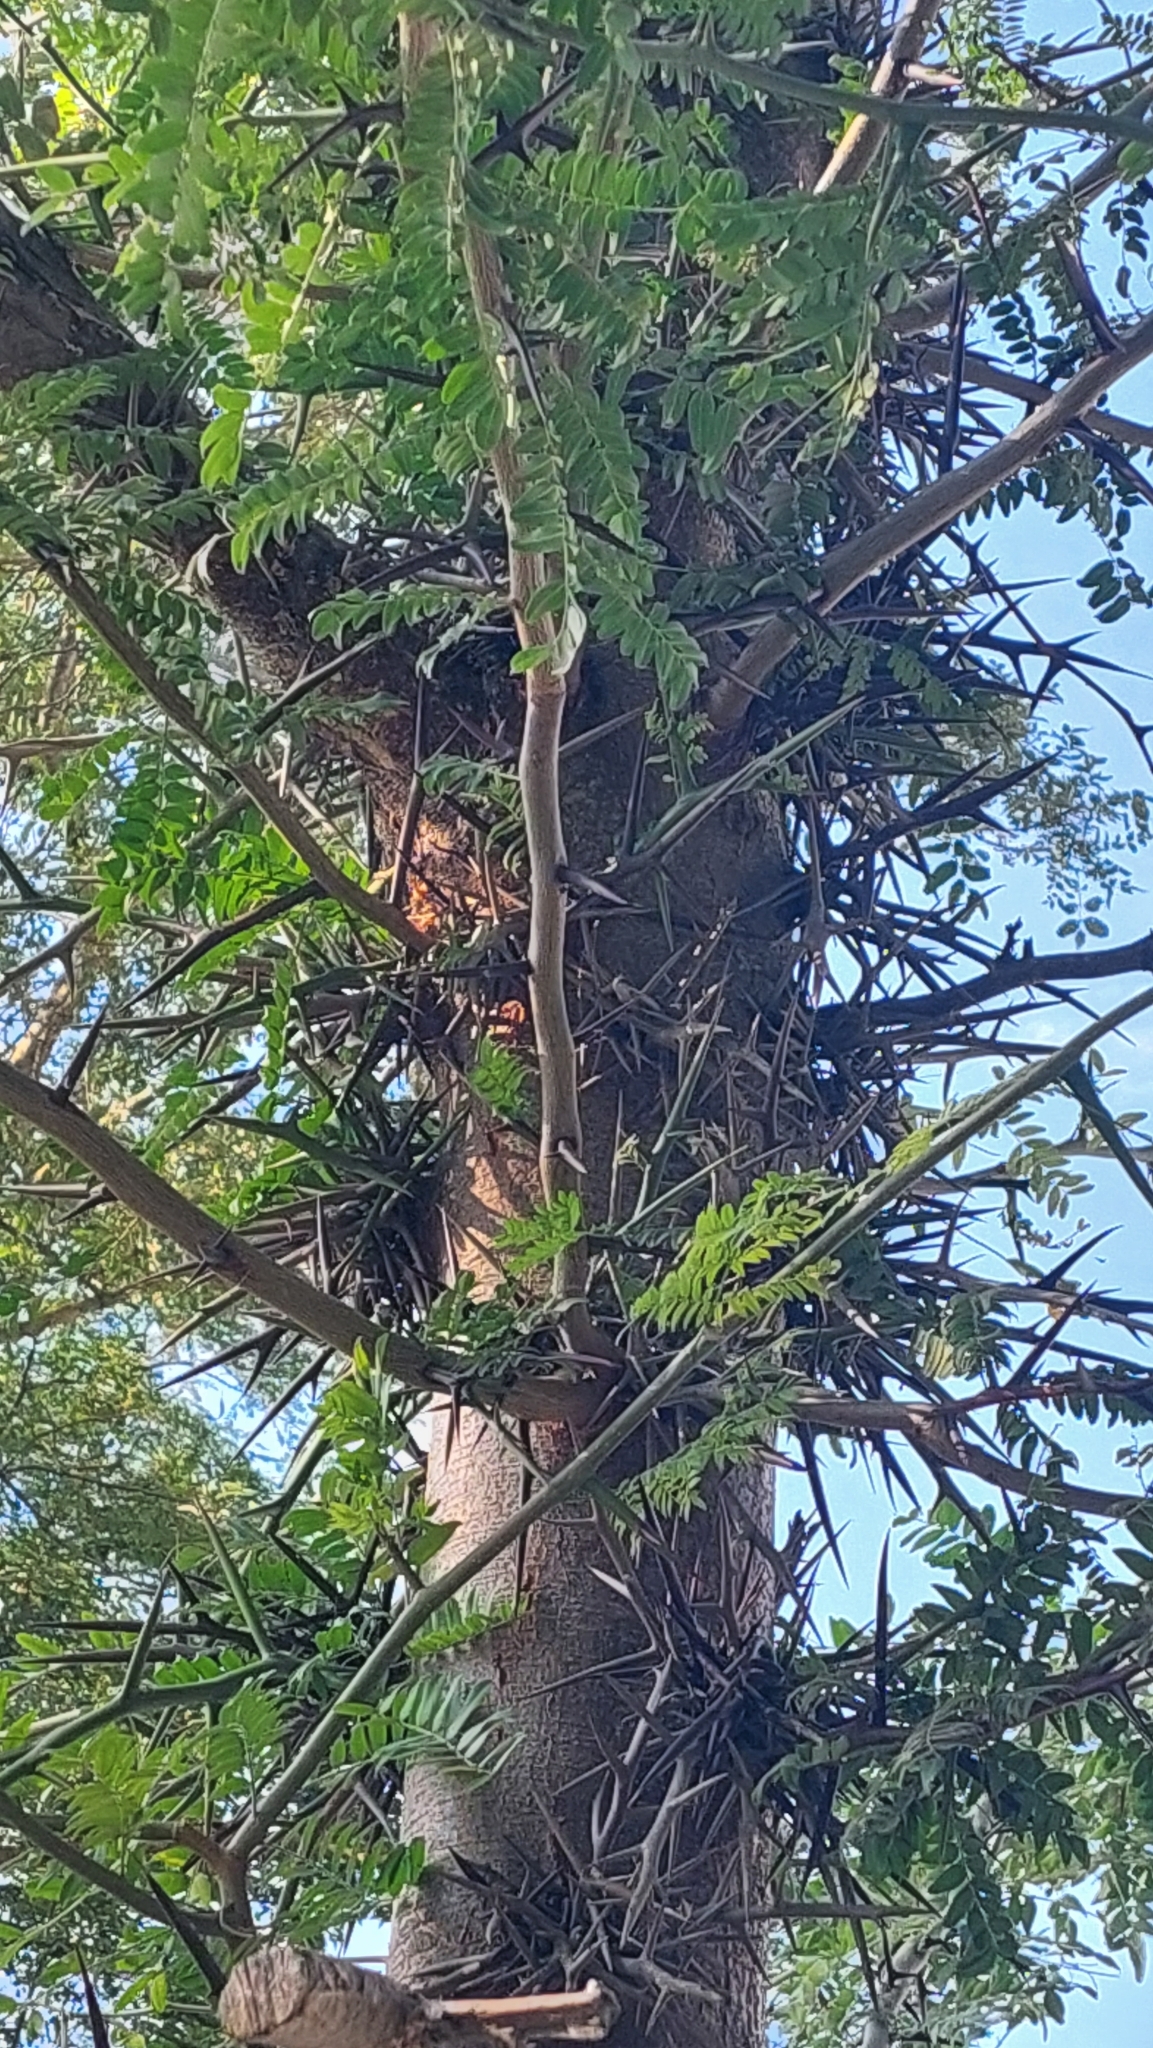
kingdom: Plantae
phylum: Tracheophyta
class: Magnoliopsida
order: Fabales
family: Fabaceae
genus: Gleditsia
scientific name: Gleditsia triacanthos
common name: Common honeylocust
